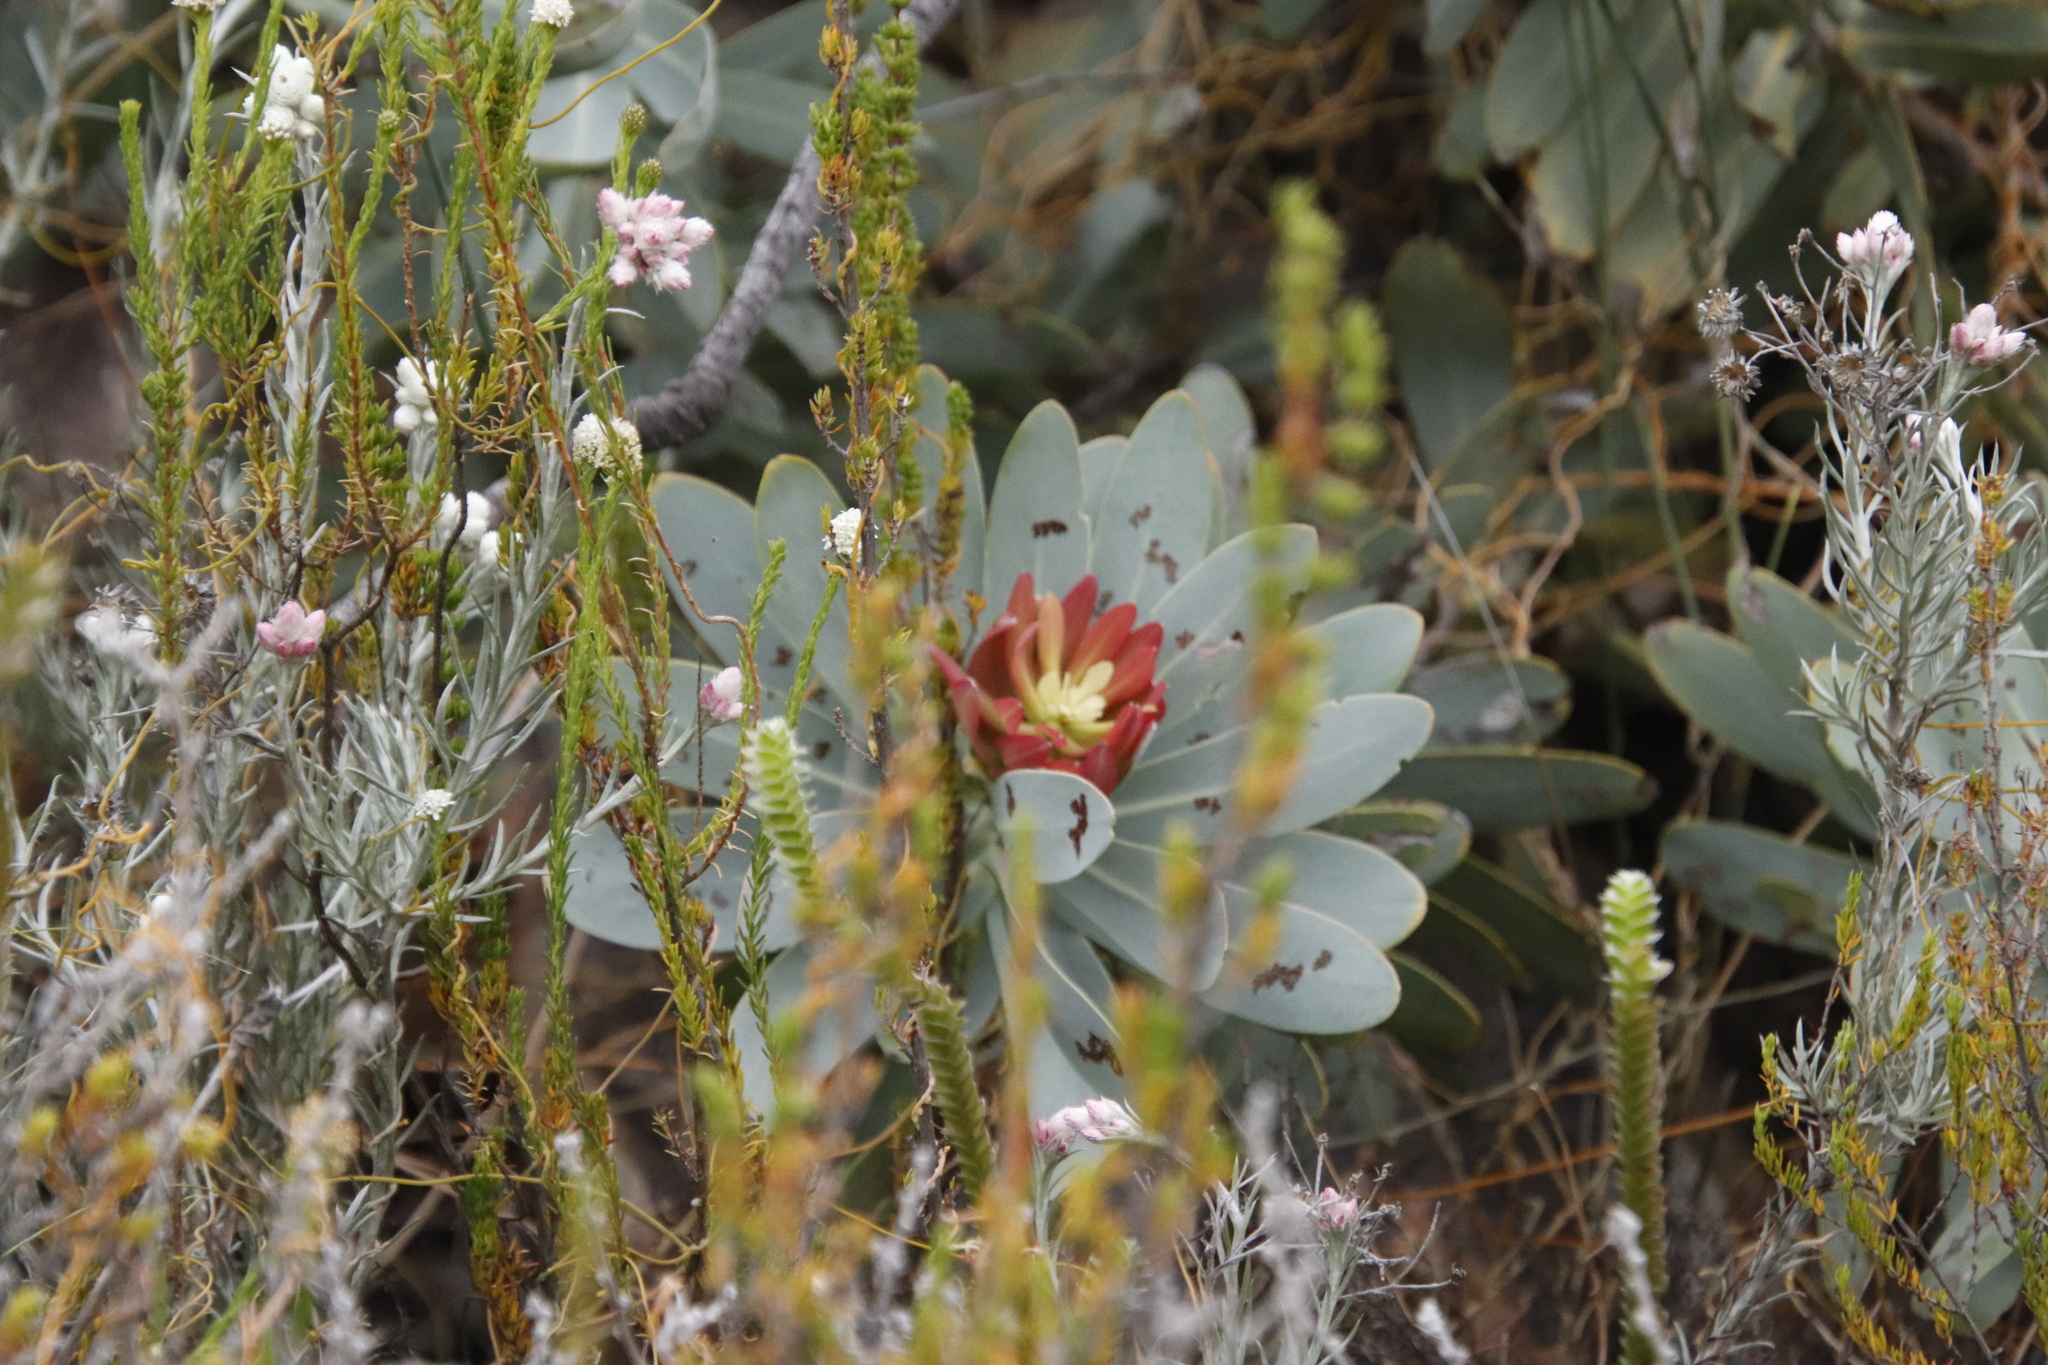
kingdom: Plantae
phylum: Tracheophyta
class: Magnoliopsida
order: Proteales
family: Proteaceae
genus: Protea
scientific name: Protea nitida
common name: Tree protea
